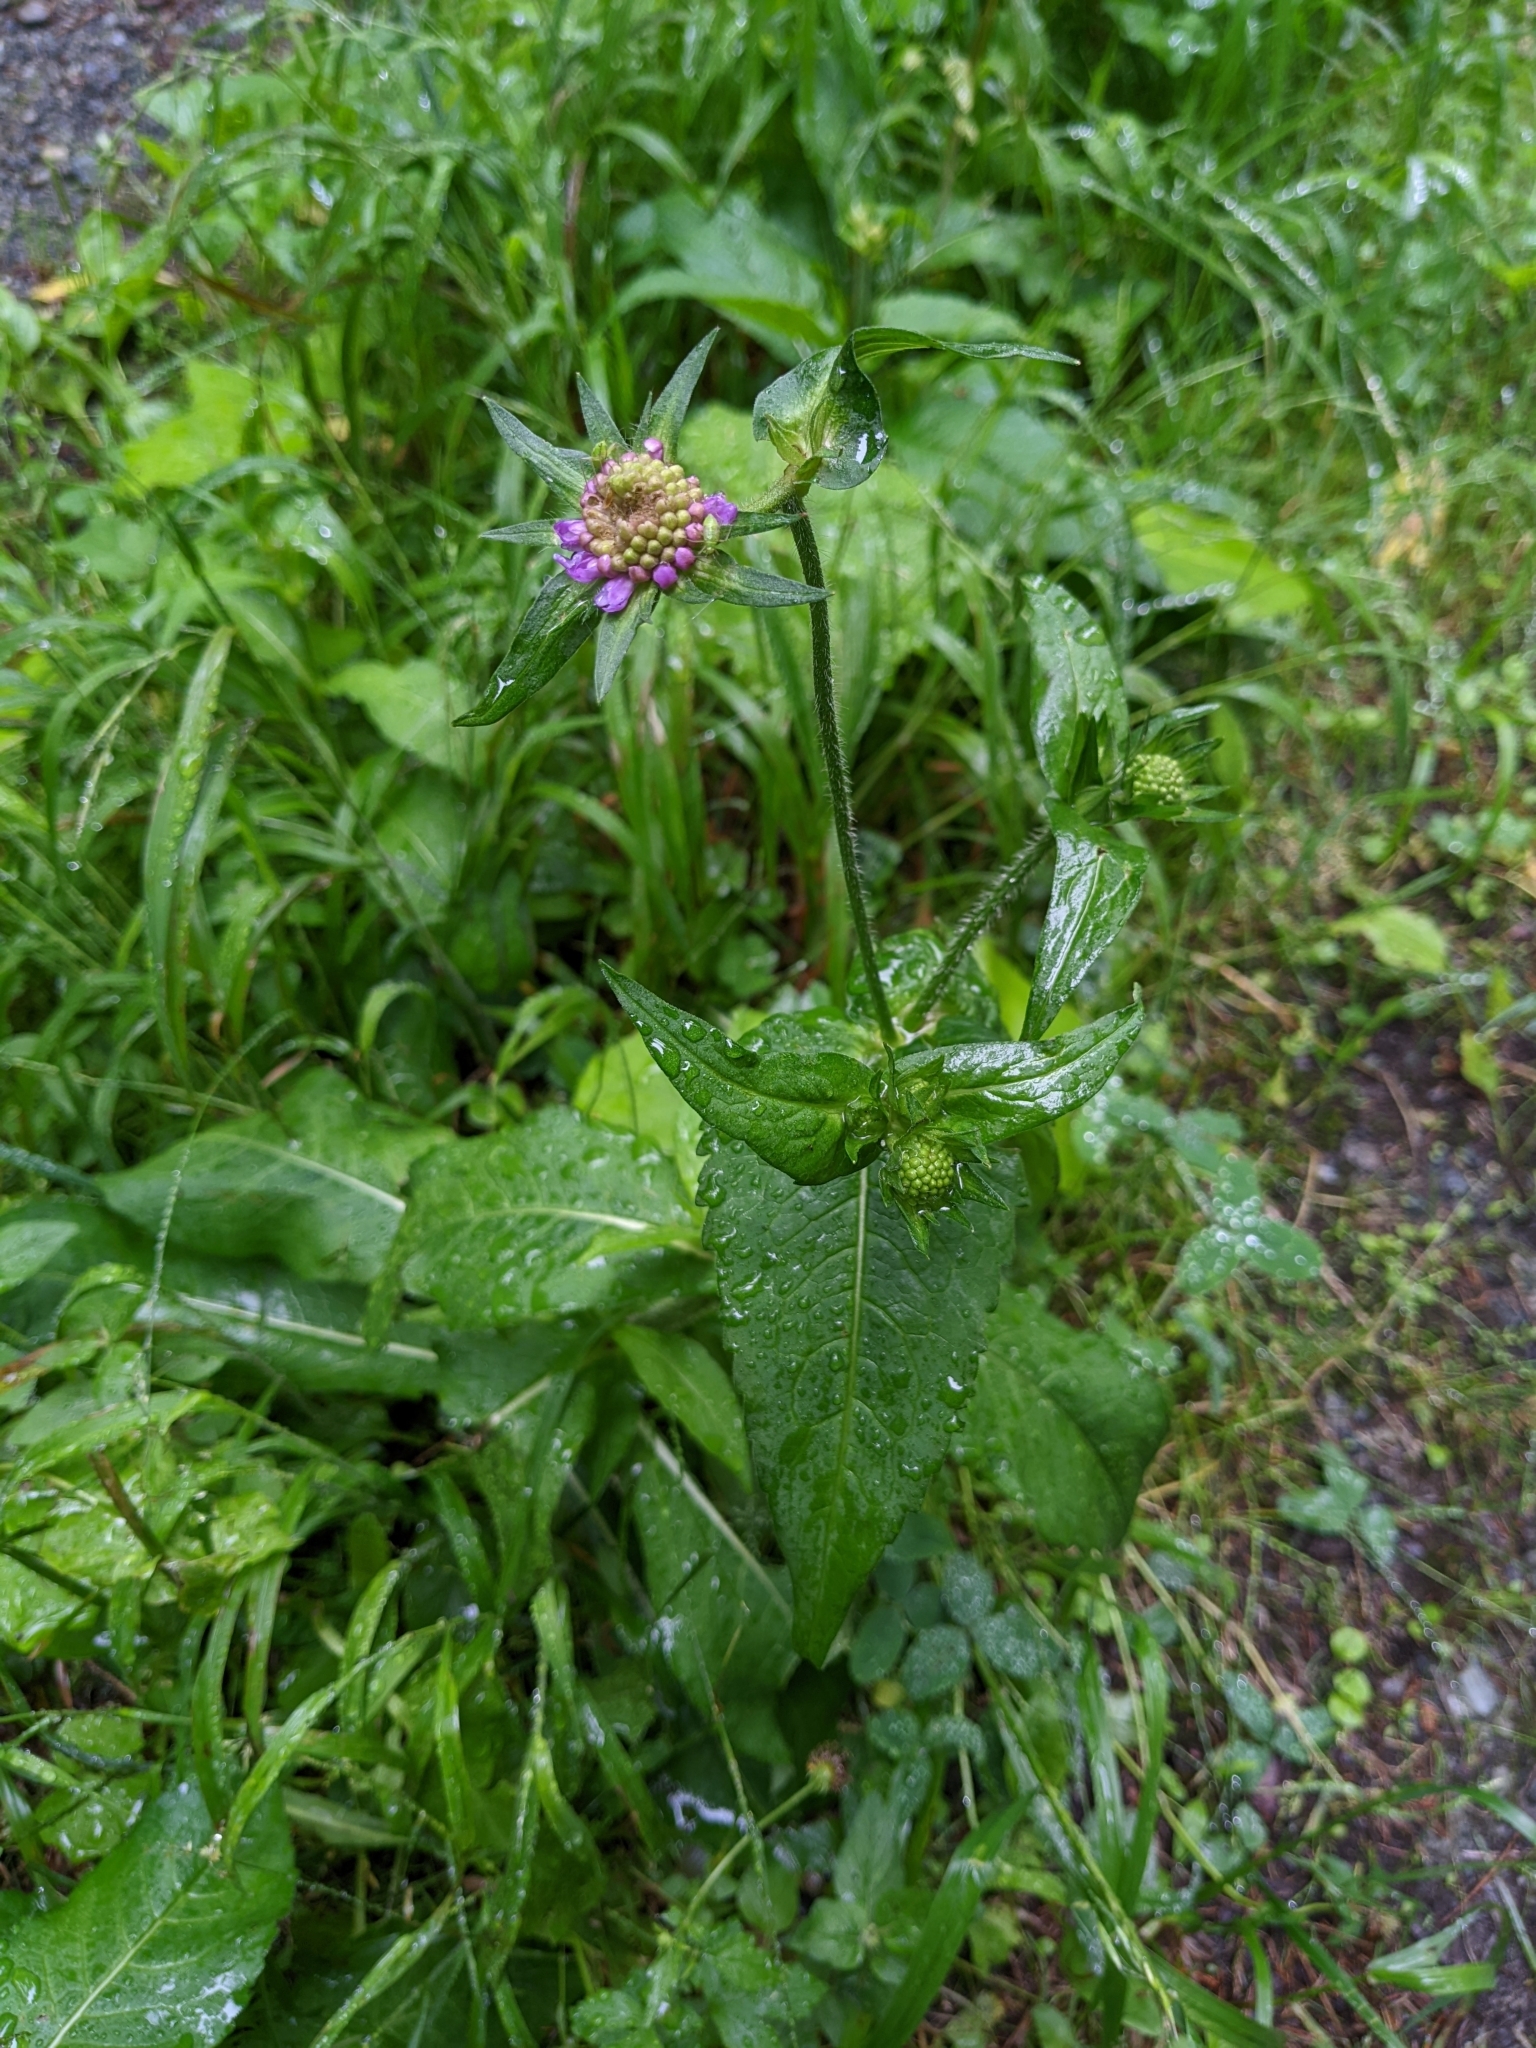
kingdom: Plantae
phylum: Tracheophyta
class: Magnoliopsida
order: Dipsacales
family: Caprifoliaceae
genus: Knautia
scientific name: Knautia dipsacifolia
